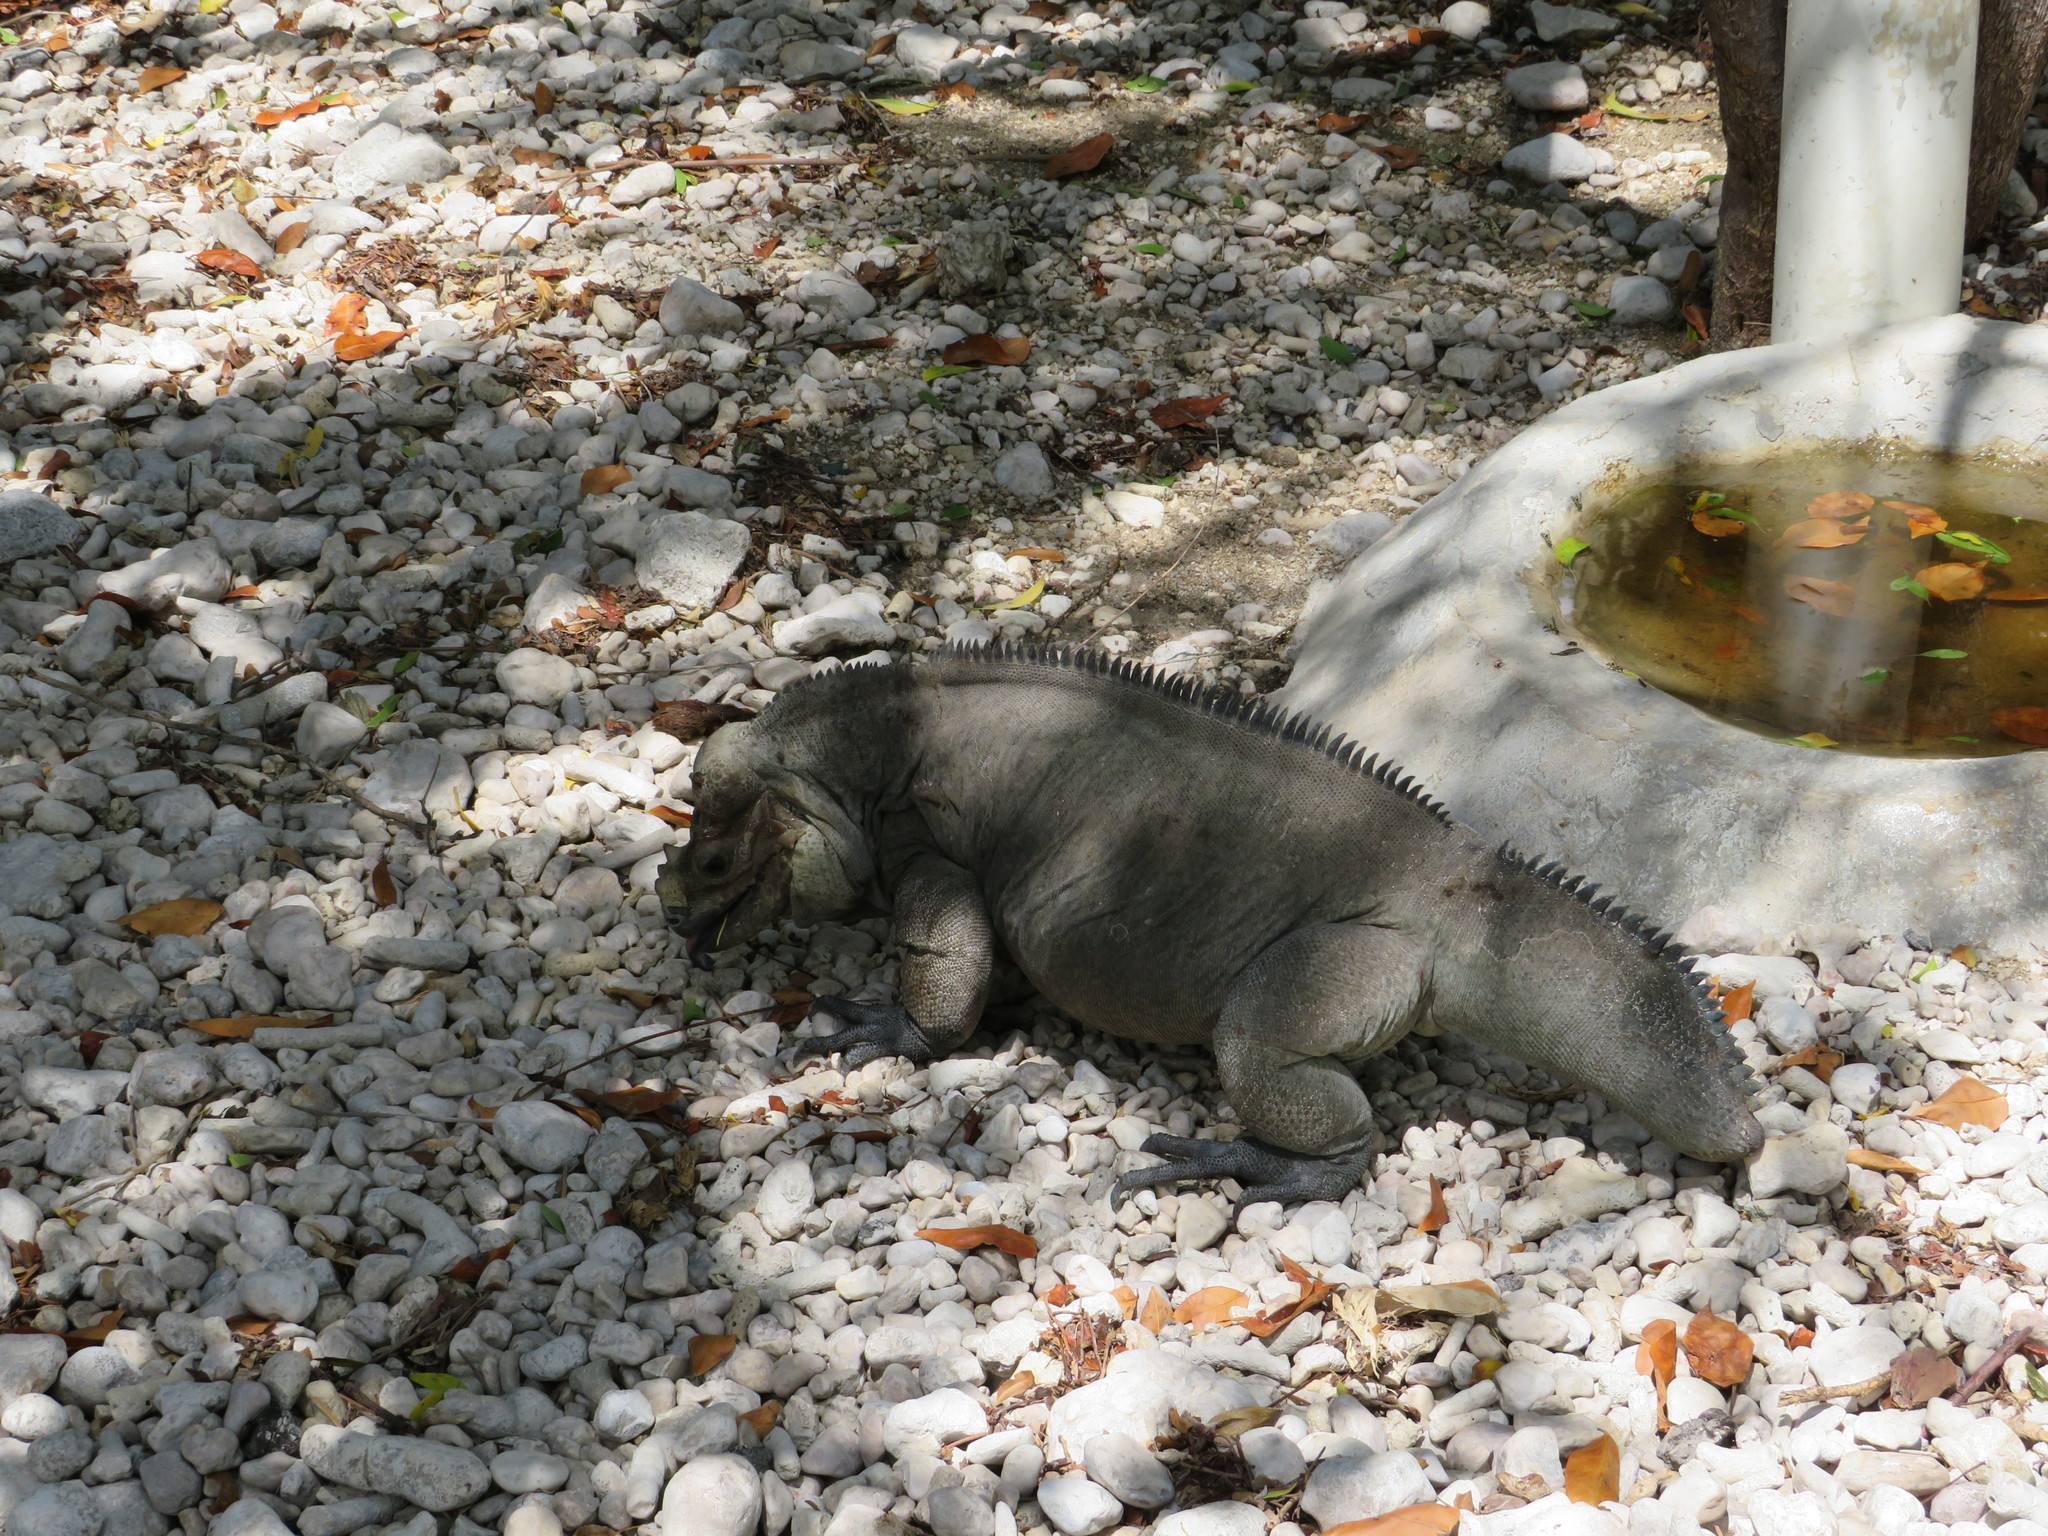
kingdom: Animalia
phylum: Chordata
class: Squamata
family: Iguanidae
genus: Cyclura
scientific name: Cyclura cornuta
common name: Hispaniolan rhinoceros iguana
